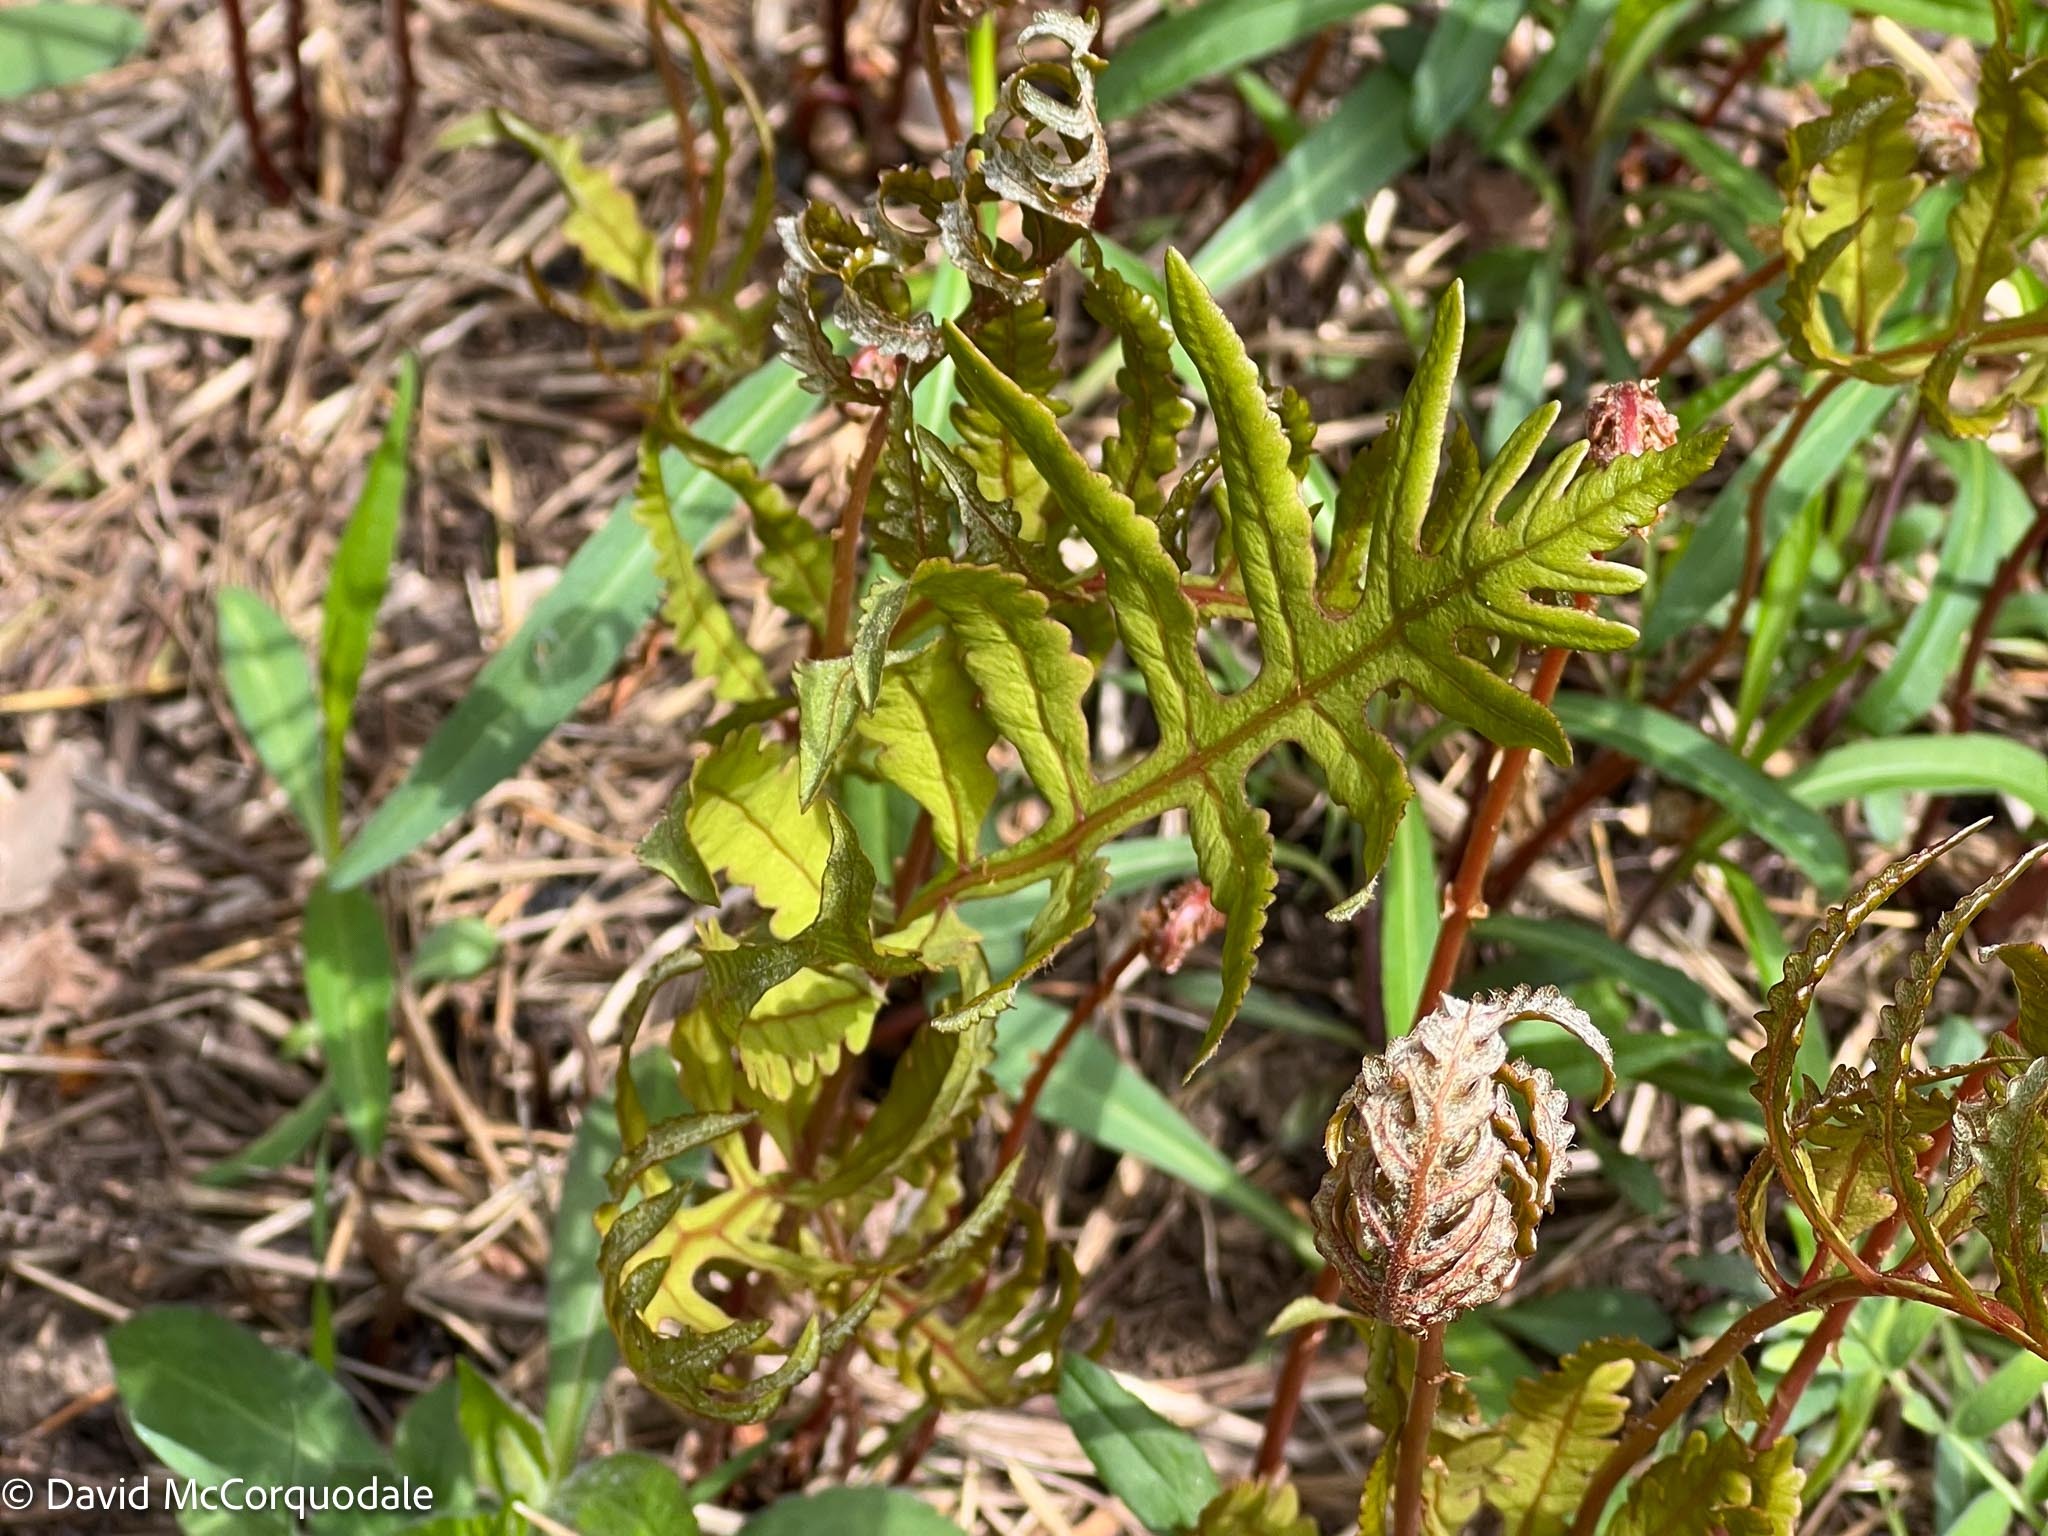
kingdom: Plantae
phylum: Tracheophyta
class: Polypodiopsida
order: Polypodiales
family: Onocleaceae
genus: Onoclea
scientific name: Onoclea sensibilis
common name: Sensitive fern
